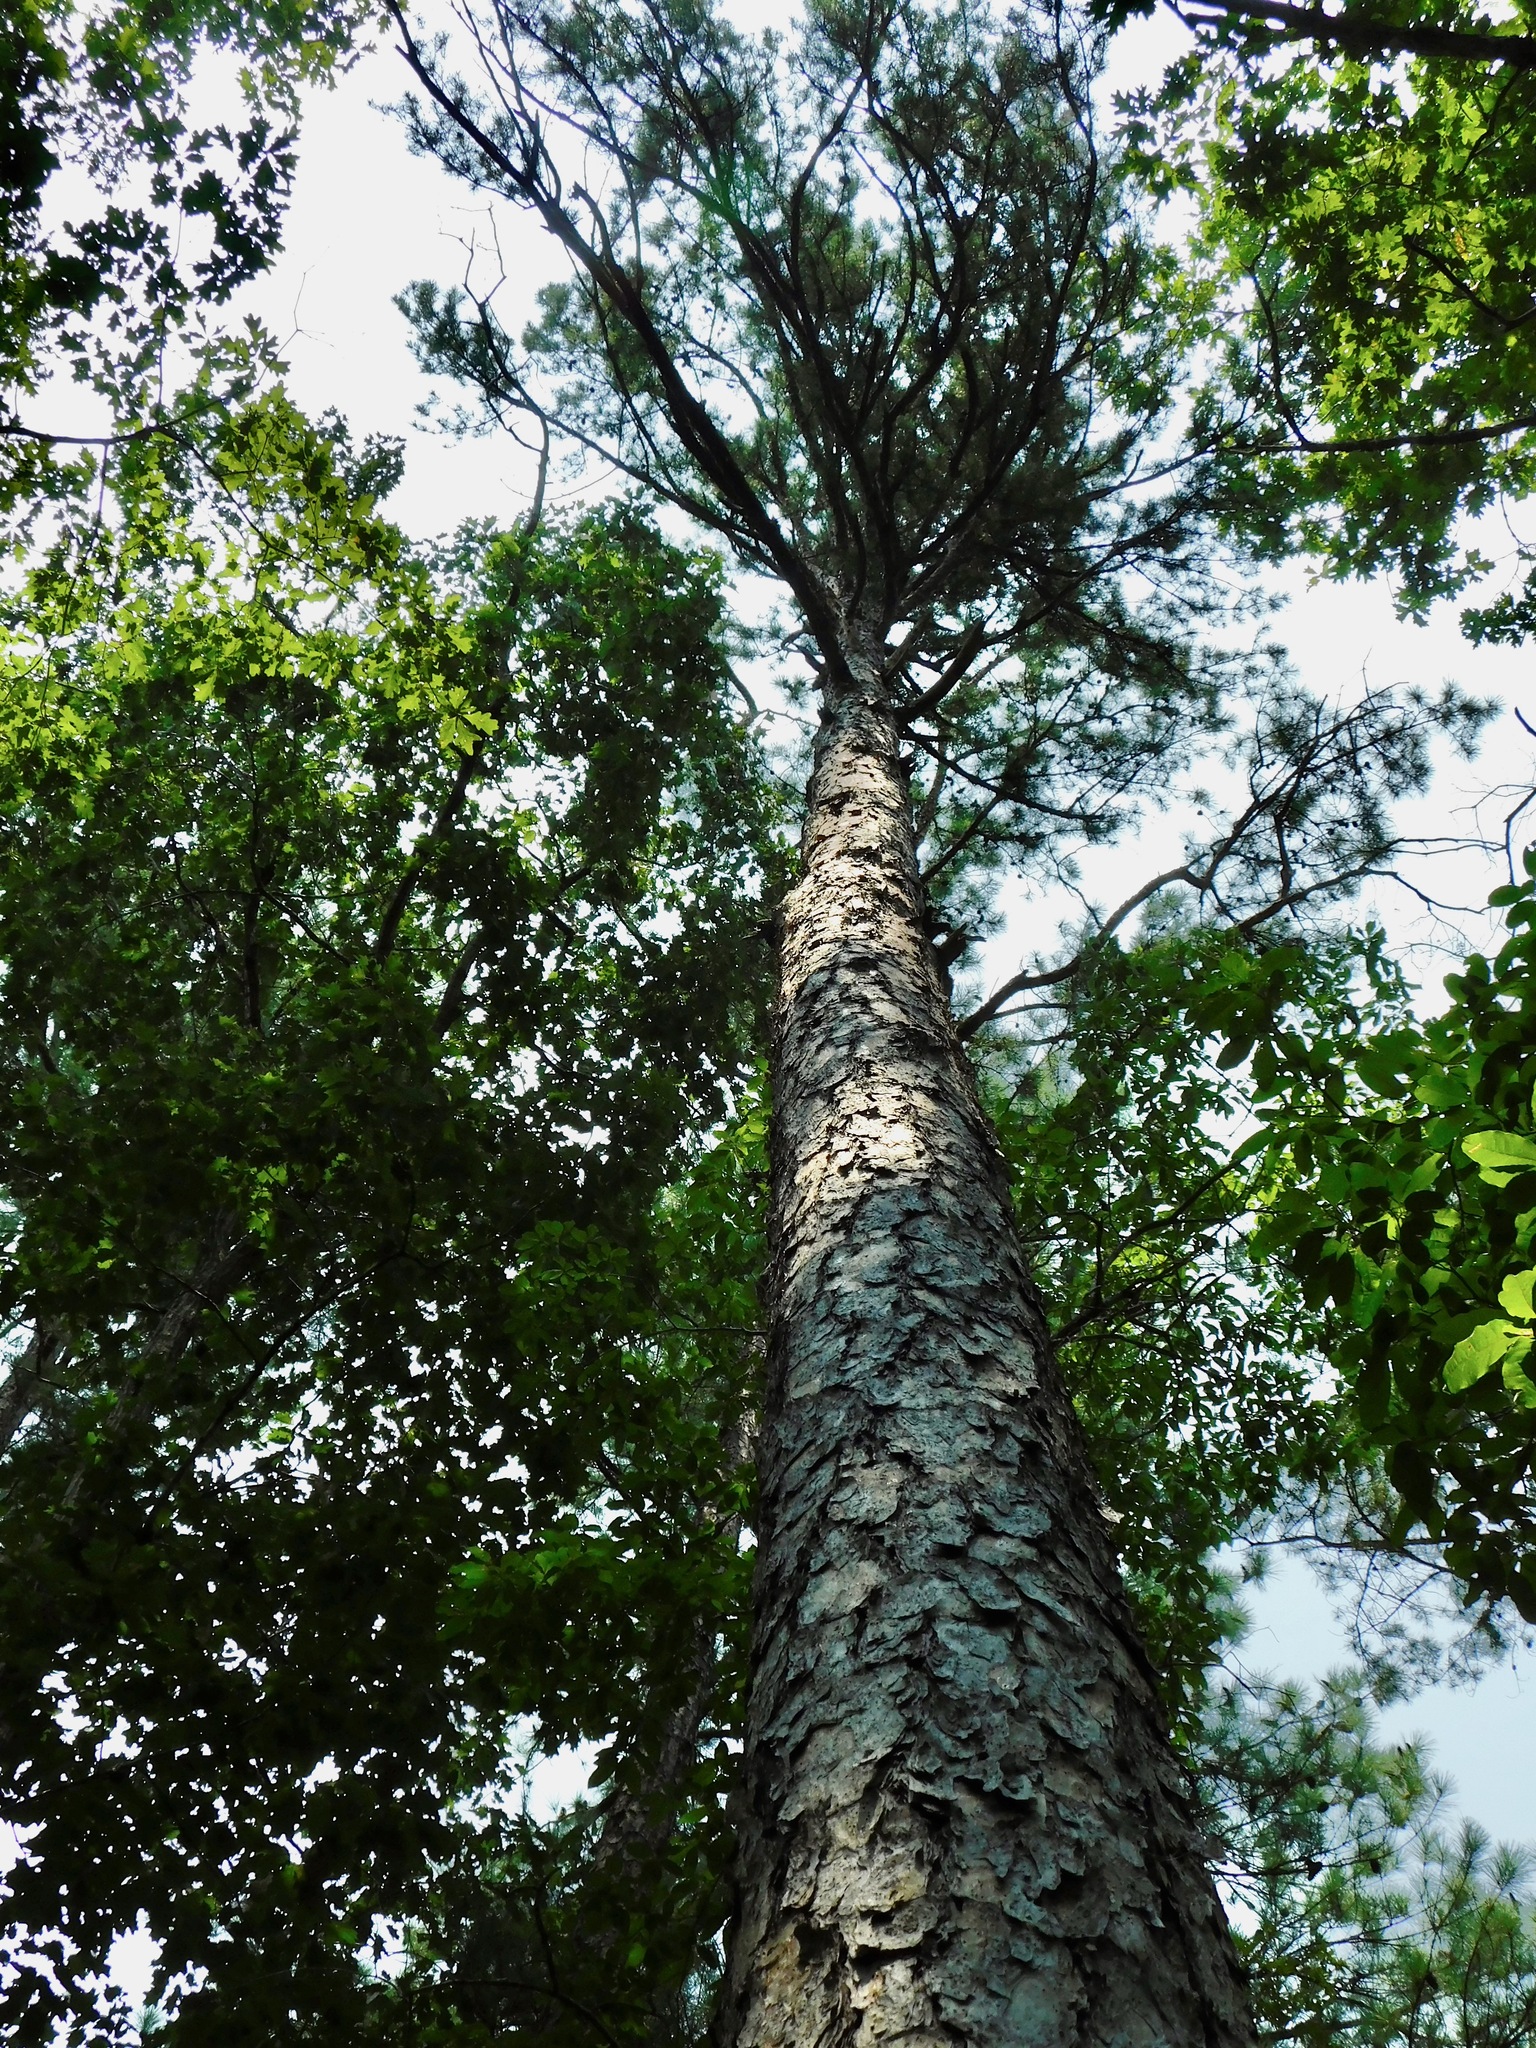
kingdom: Plantae
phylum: Tracheophyta
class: Pinopsida
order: Pinales
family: Pinaceae
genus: Pinus
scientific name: Pinus echinata
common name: Shortleaf pine
